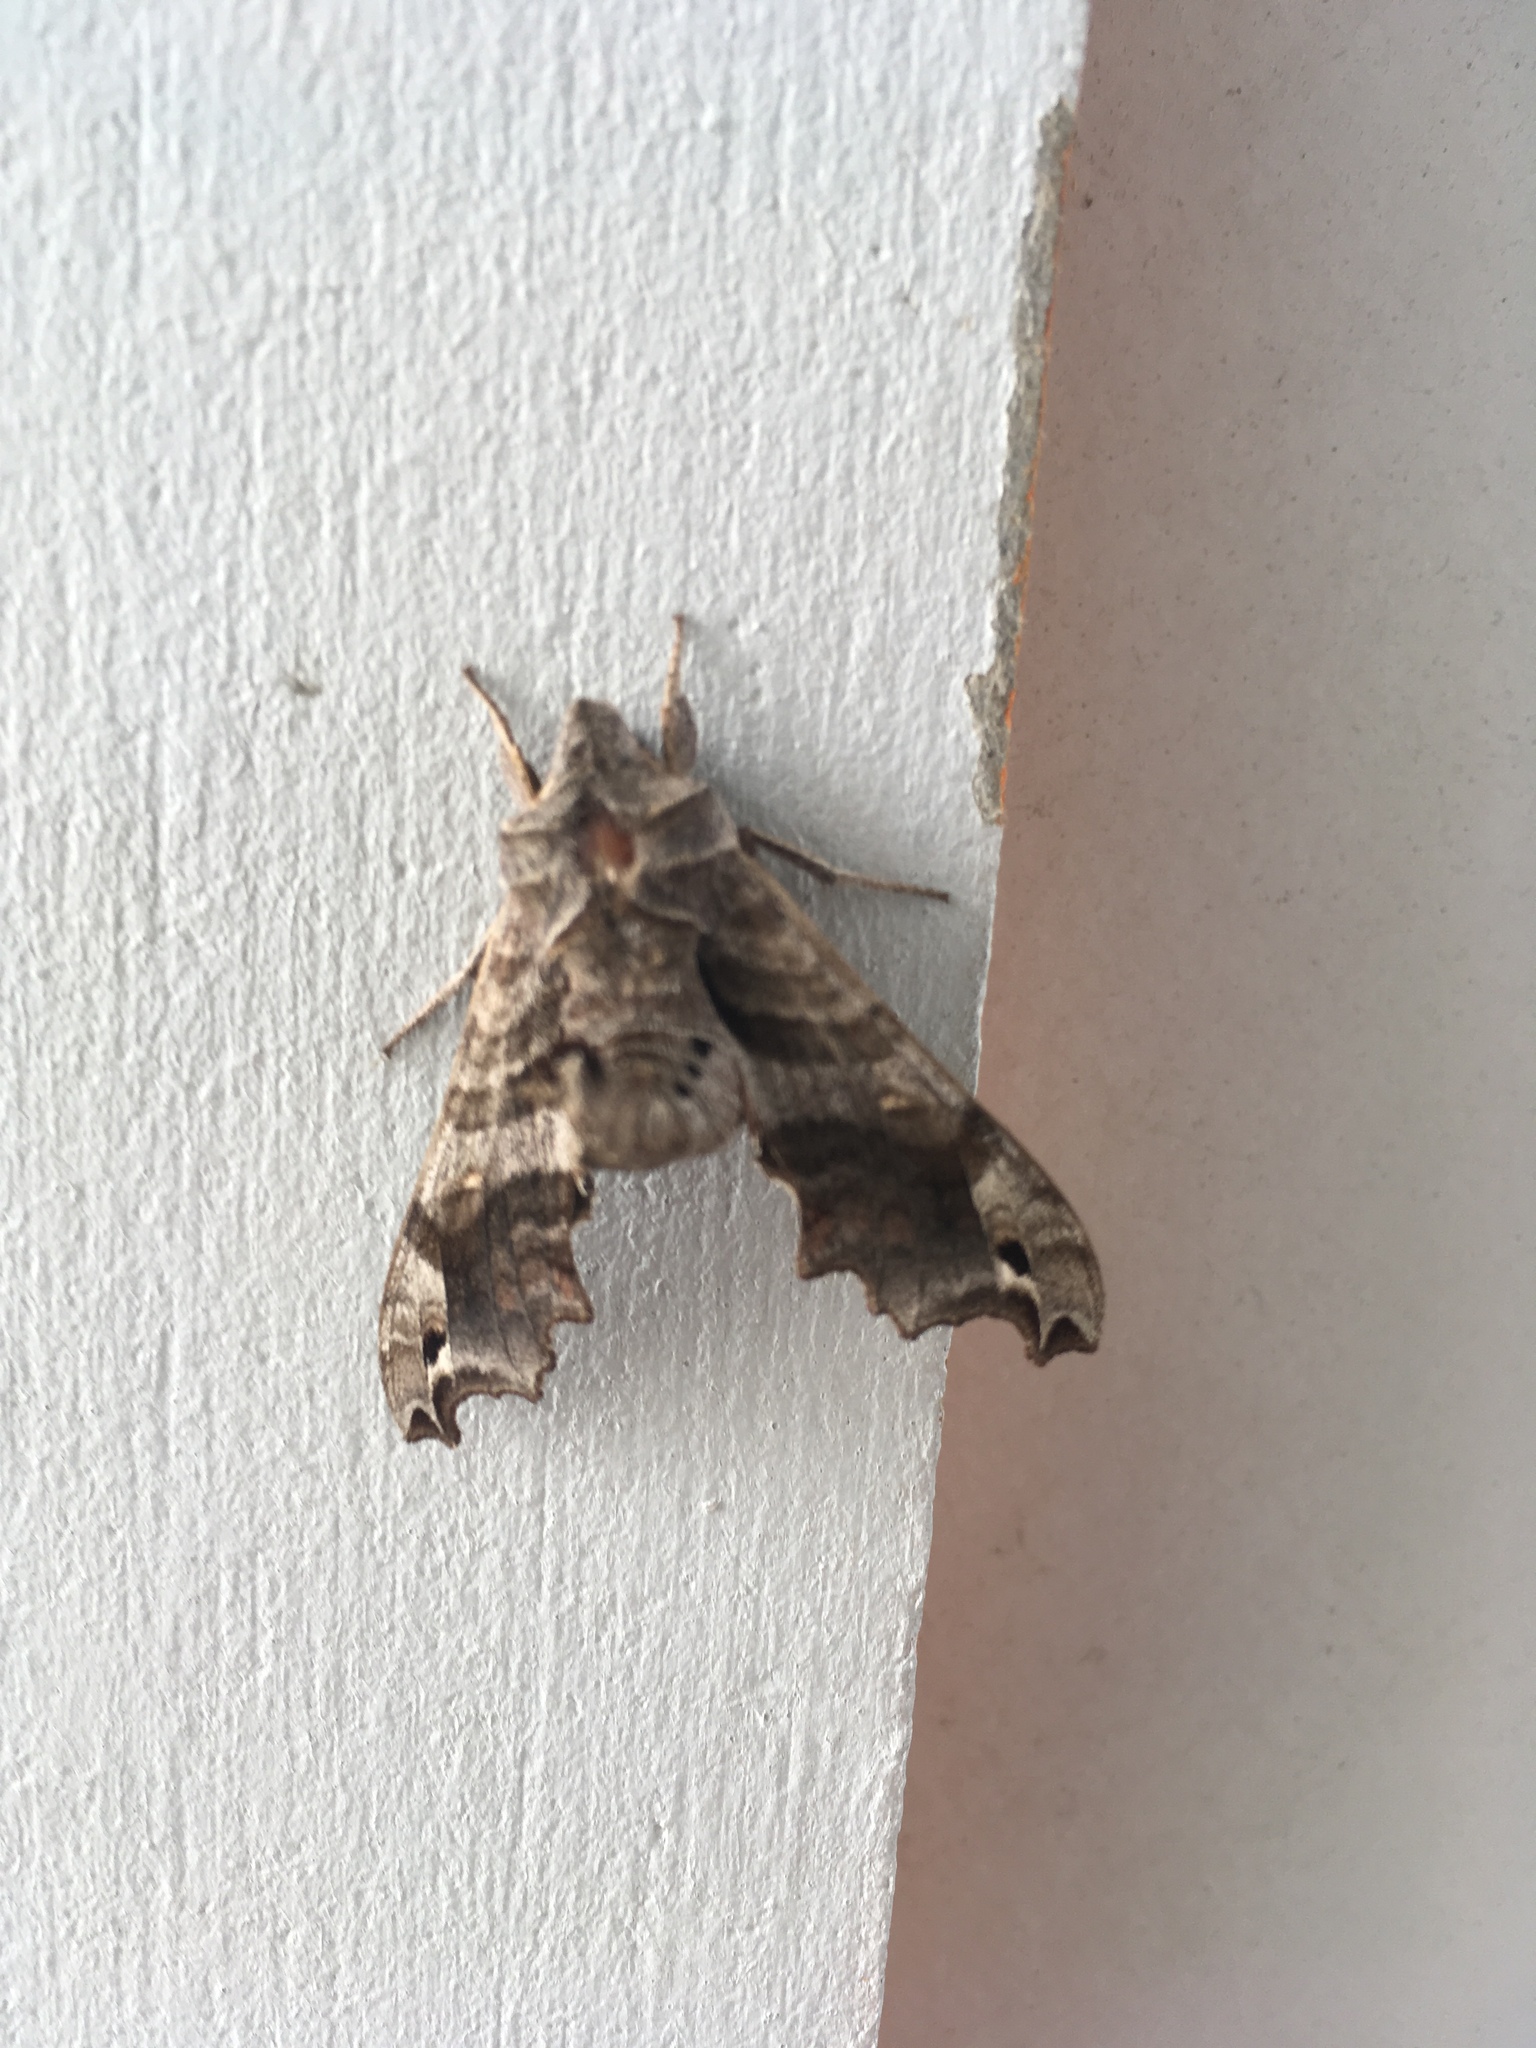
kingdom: Animalia
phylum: Arthropoda
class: Insecta
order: Lepidoptera
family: Sphingidae
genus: Deidamia
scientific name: Deidamia inscriptum
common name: Lettered sphinx
